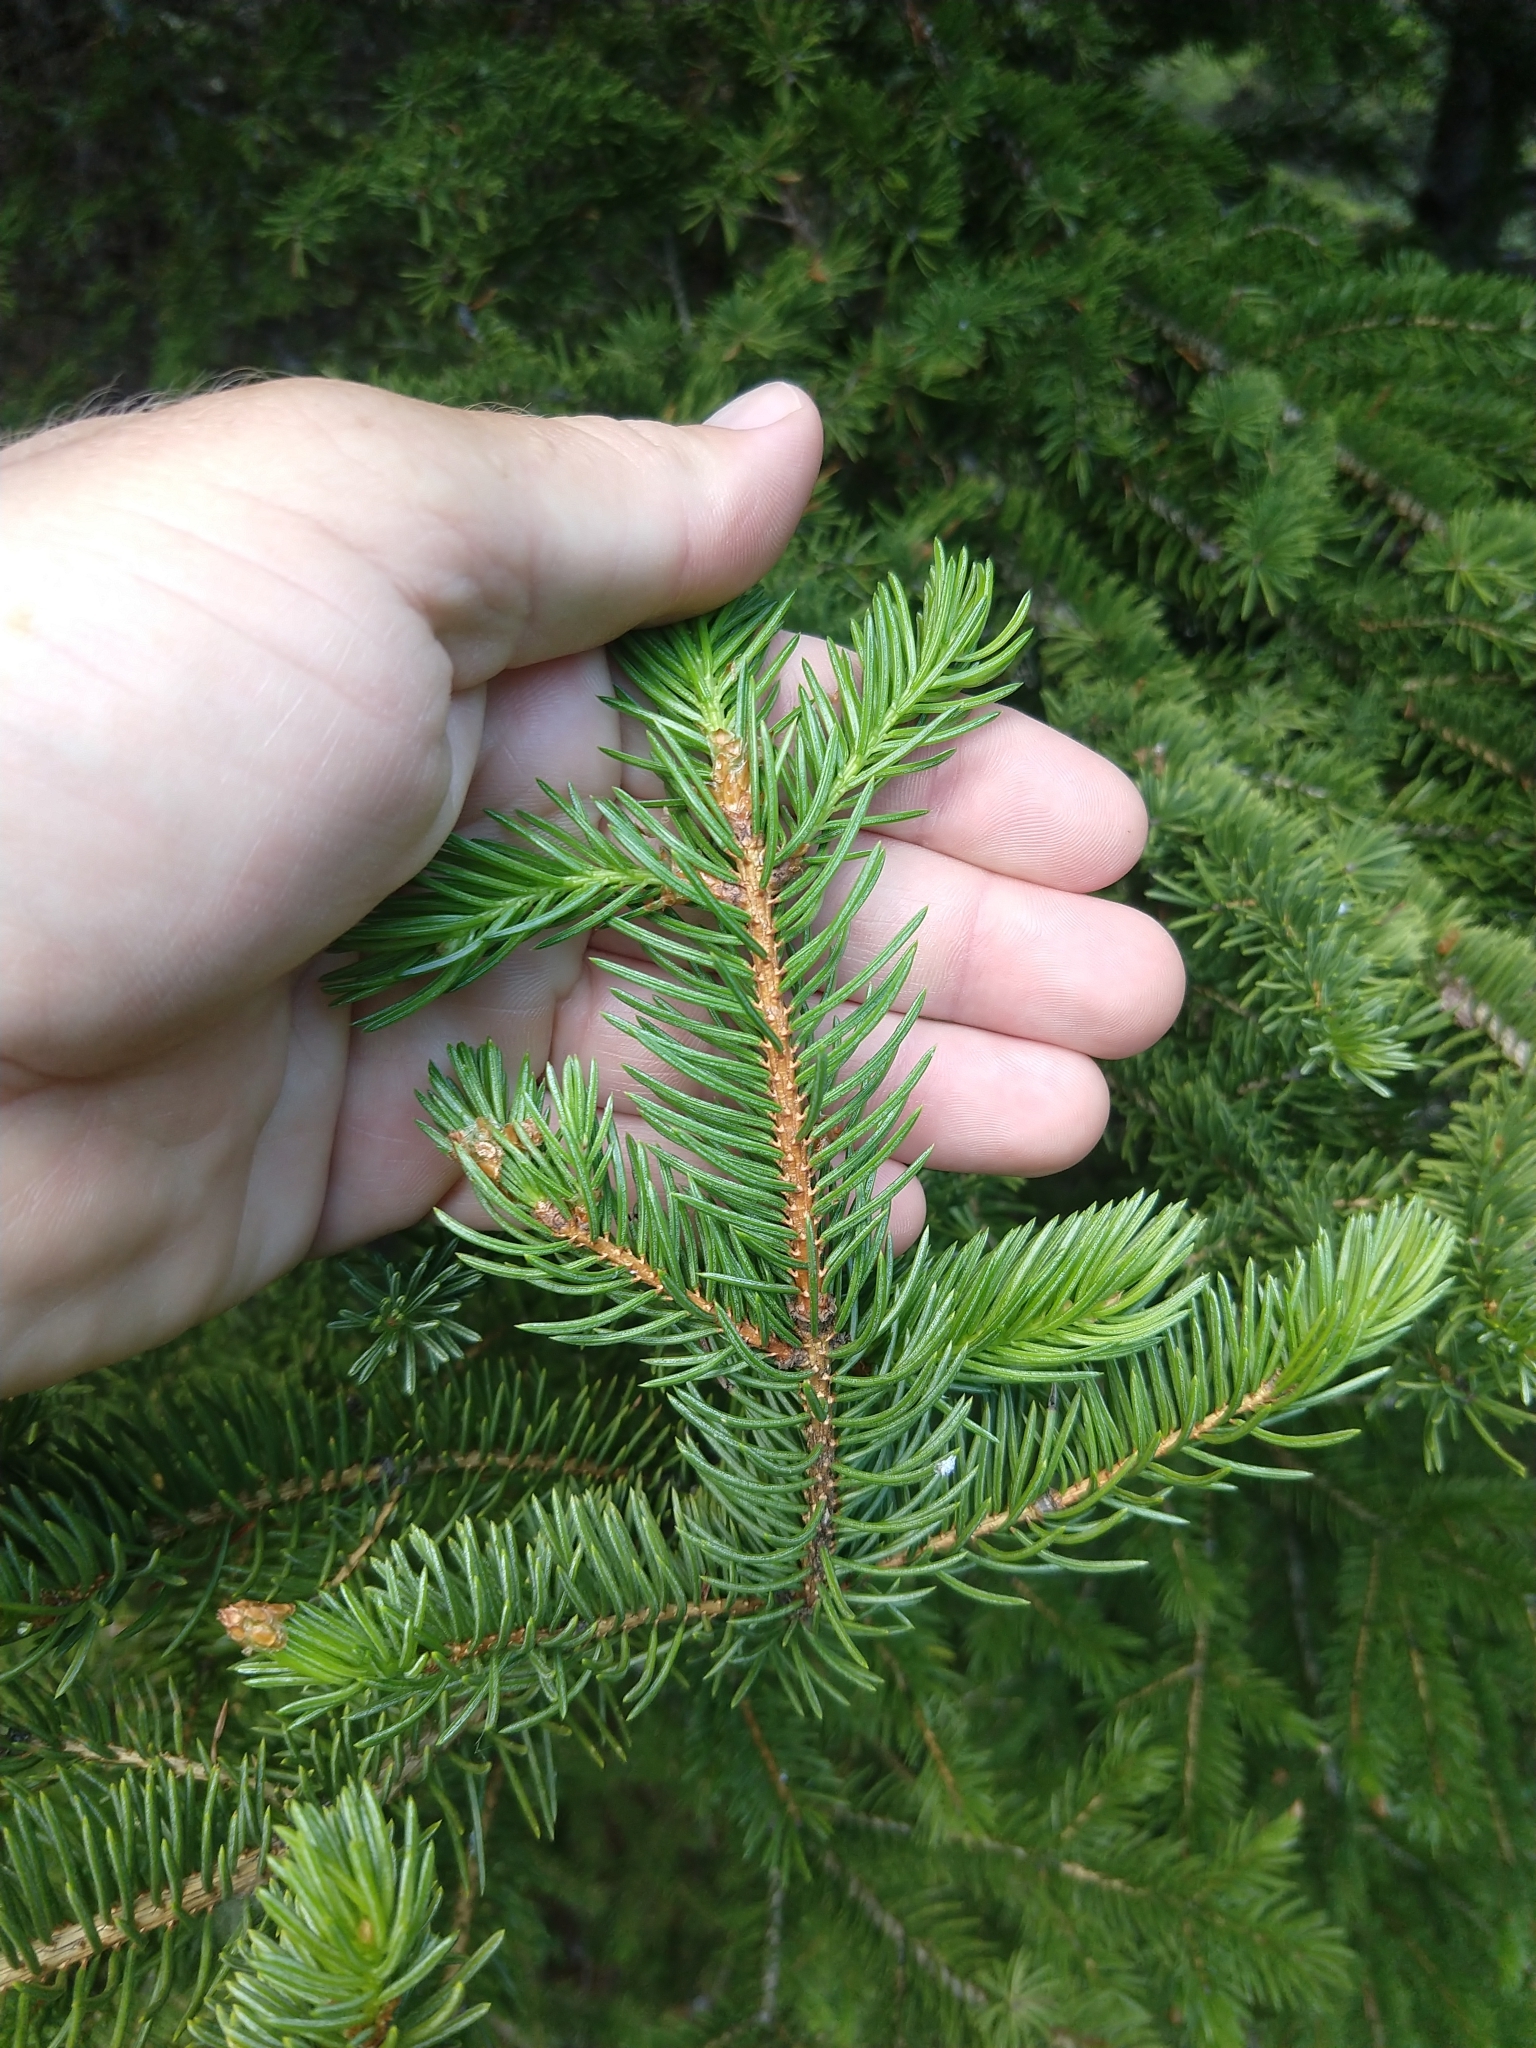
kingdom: Plantae
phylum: Tracheophyta
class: Pinopsida
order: Pinales
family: Pinaceae
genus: Picea
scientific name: Picea engelmannii
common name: Engelmann spruce
